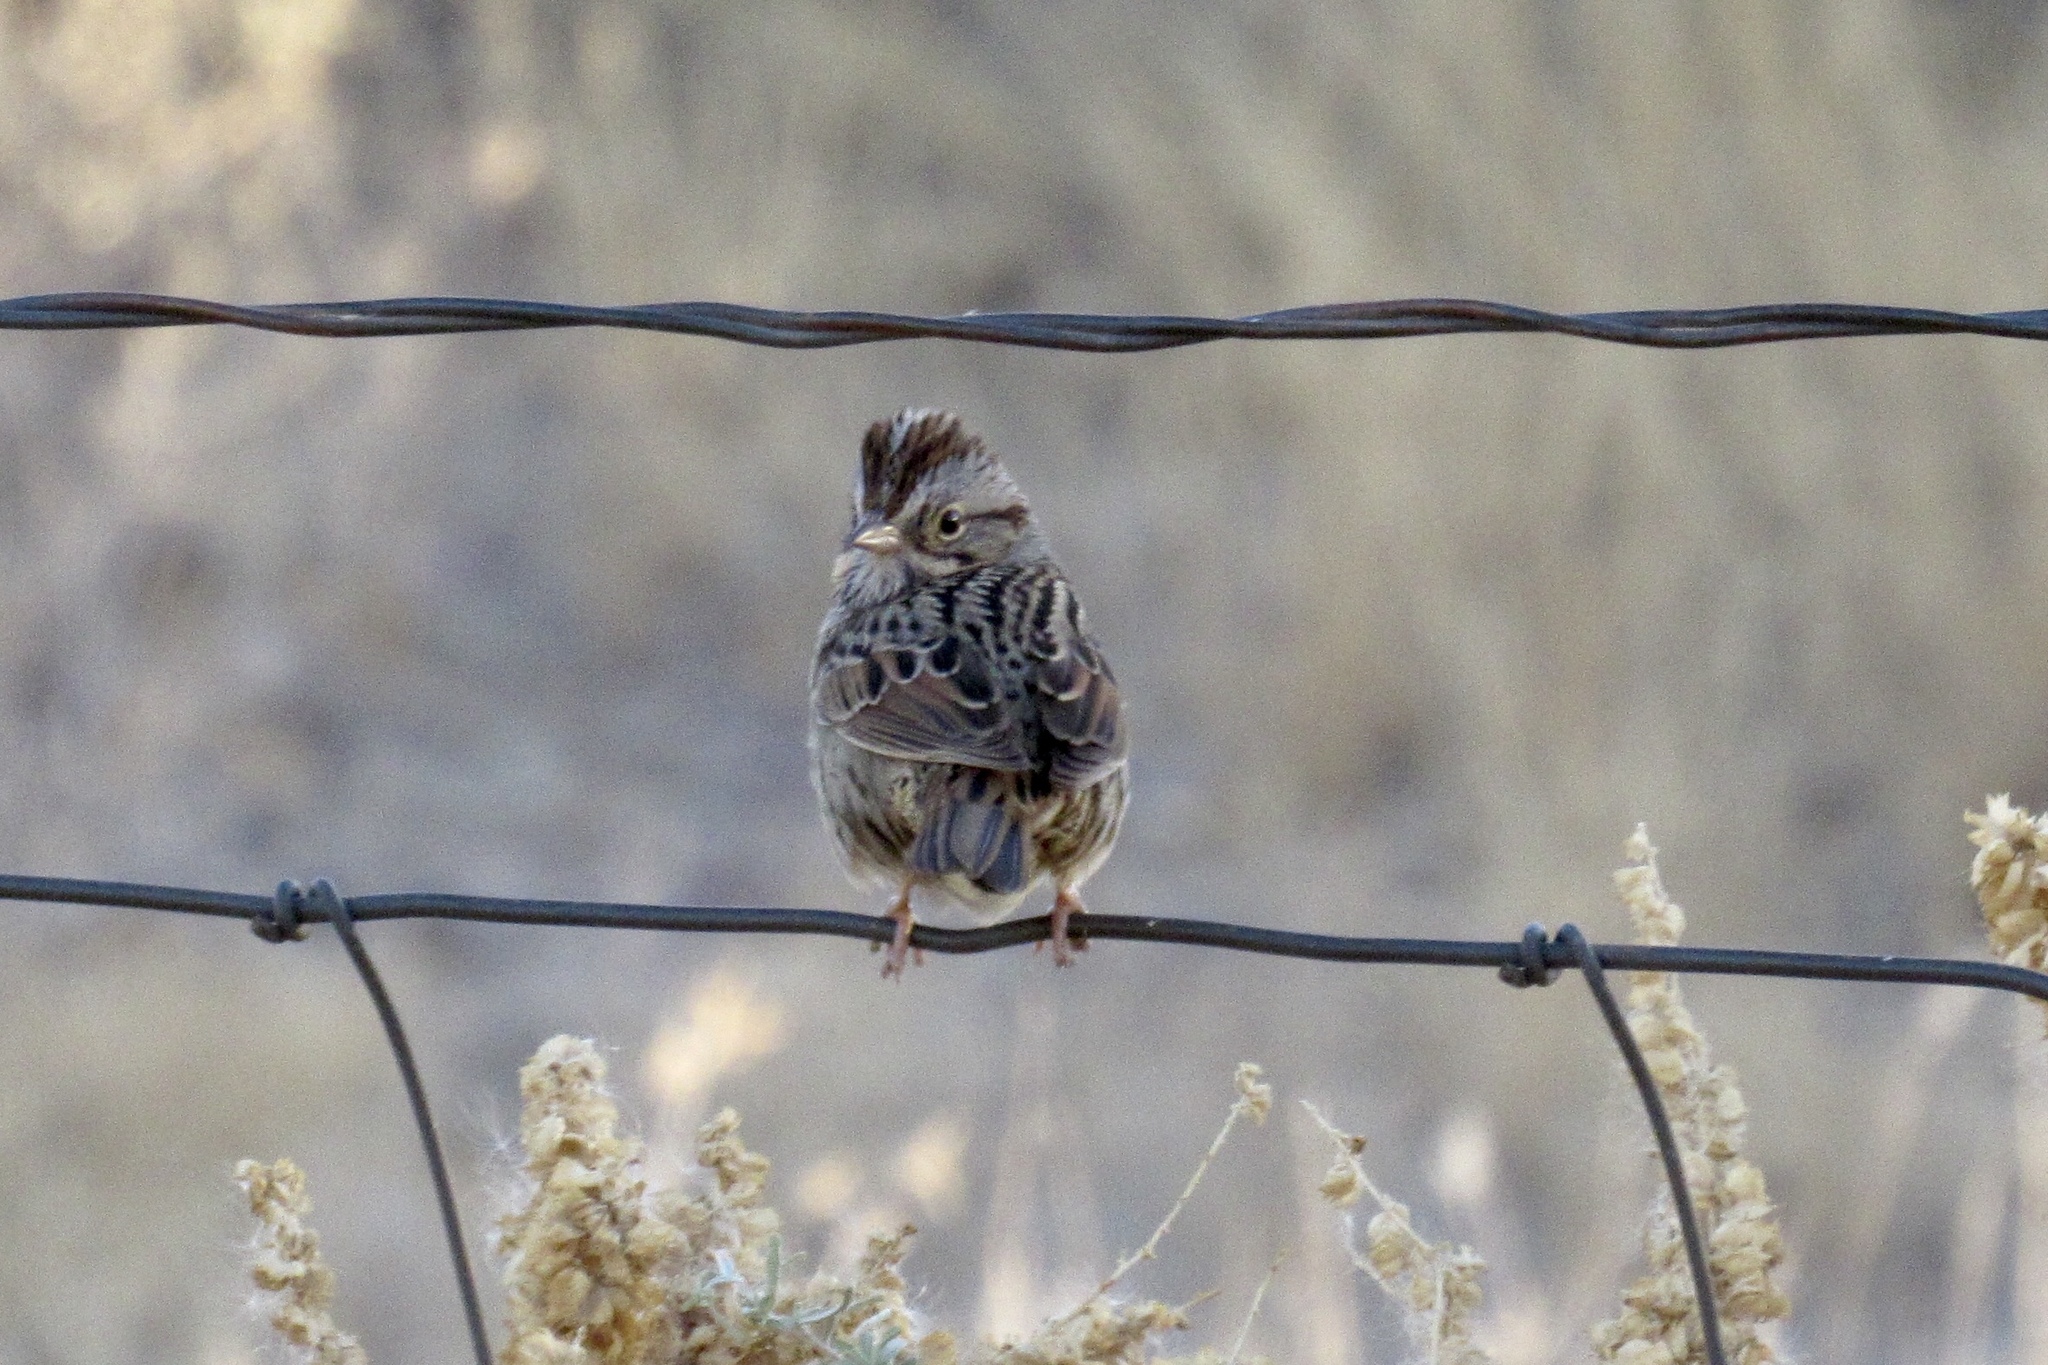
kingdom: Animalia
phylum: Chordata
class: Aves
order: Passeriformes
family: Passerellidae
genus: Melospiza
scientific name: Melospiza lincolnii
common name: Lincoln's sparrow
